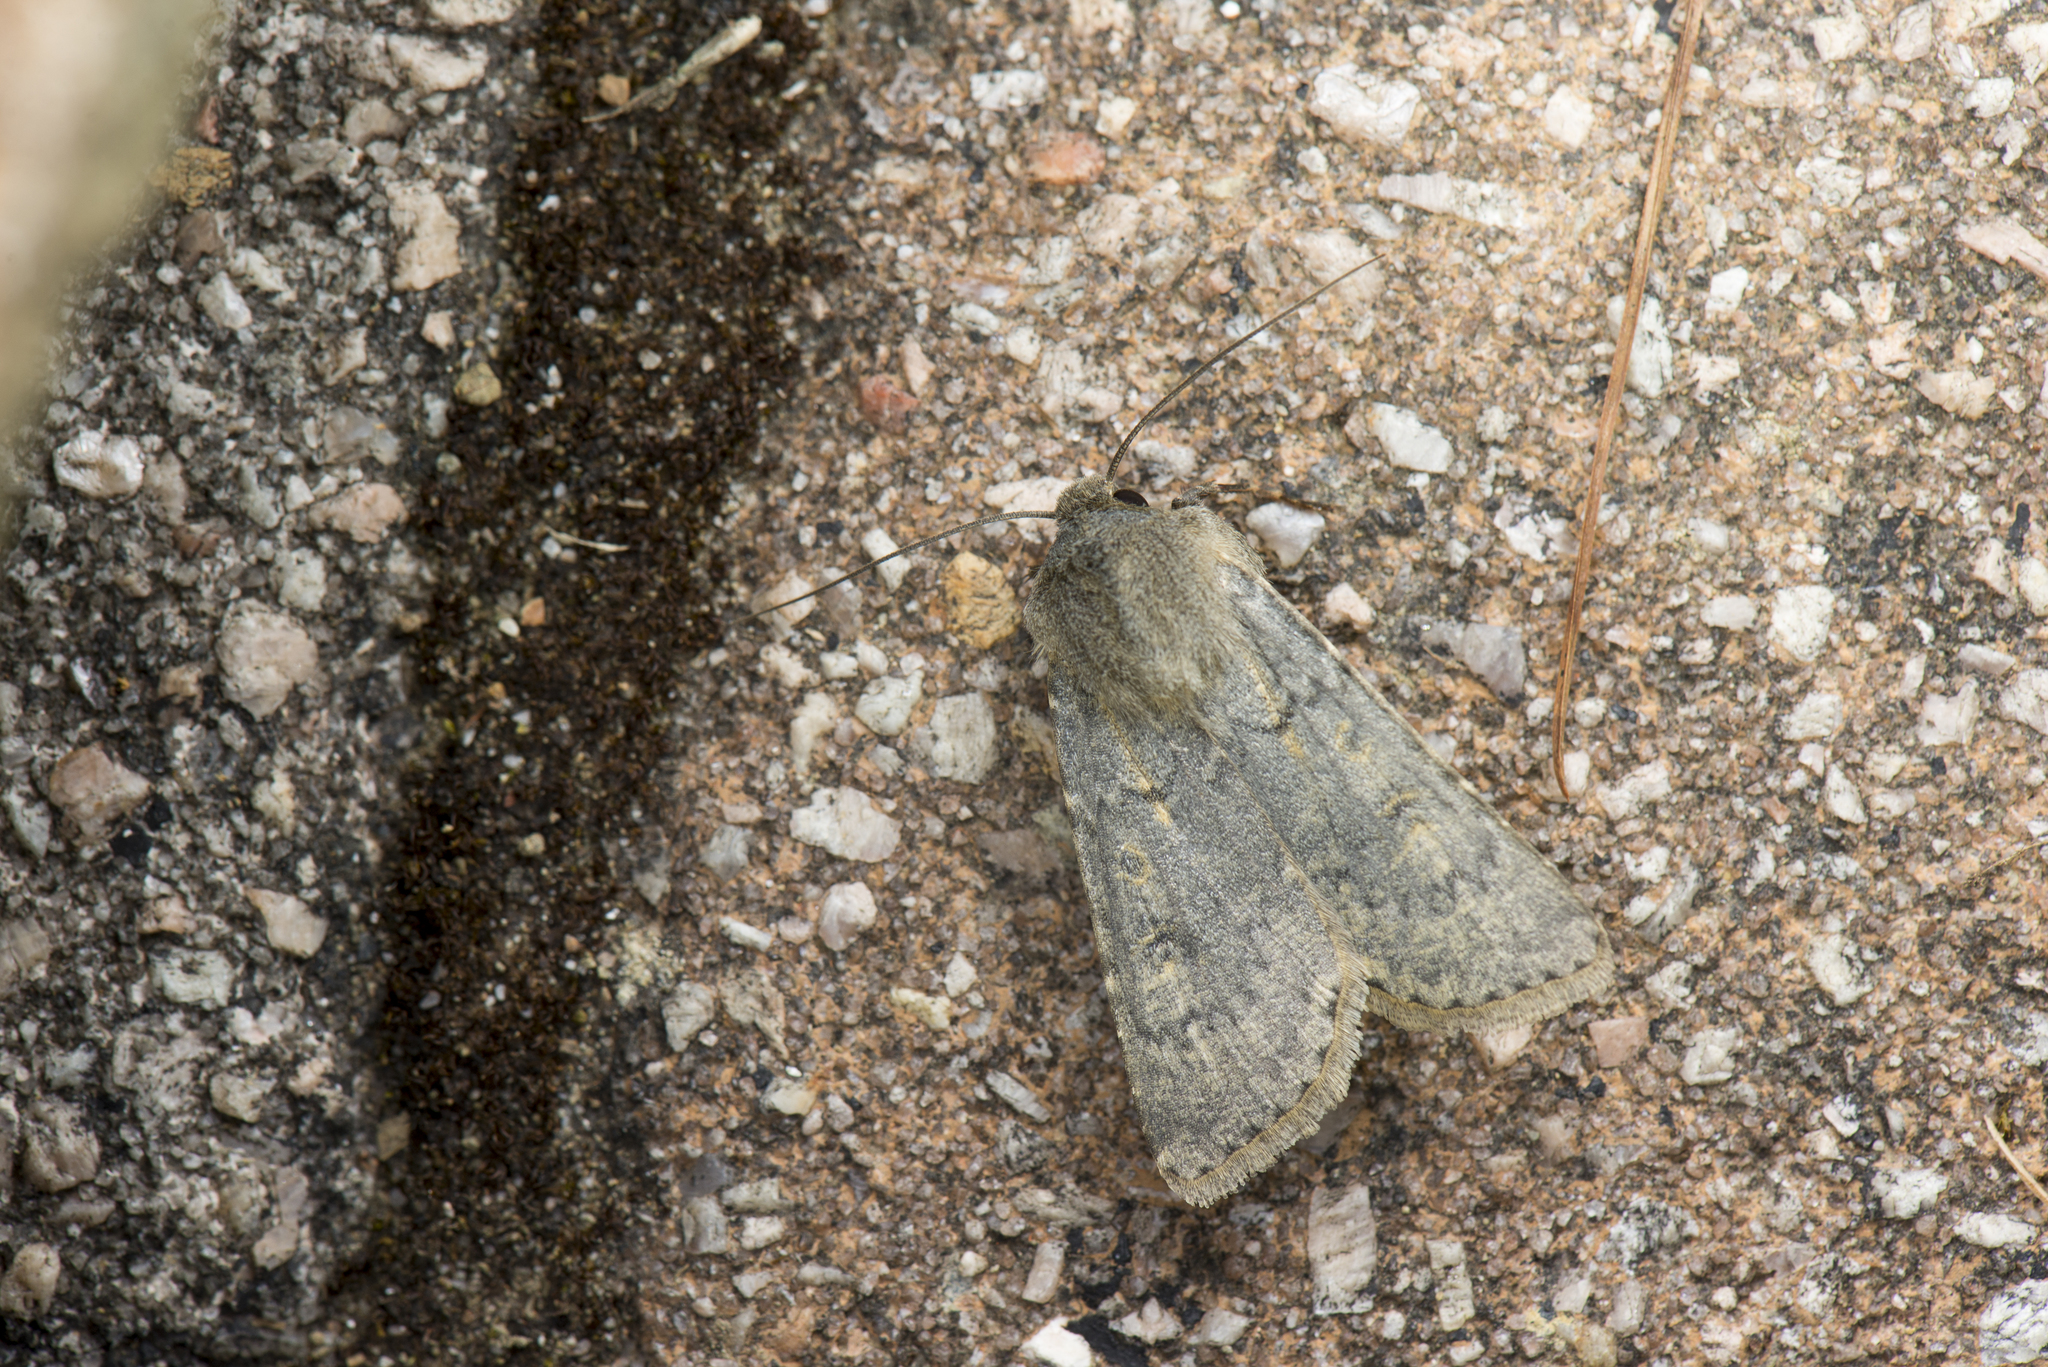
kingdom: Animalia
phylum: Arthropoda
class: Insecta
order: Lepidoptera
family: Noctuidae
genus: Agrotis
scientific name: Agrotis taiwana
